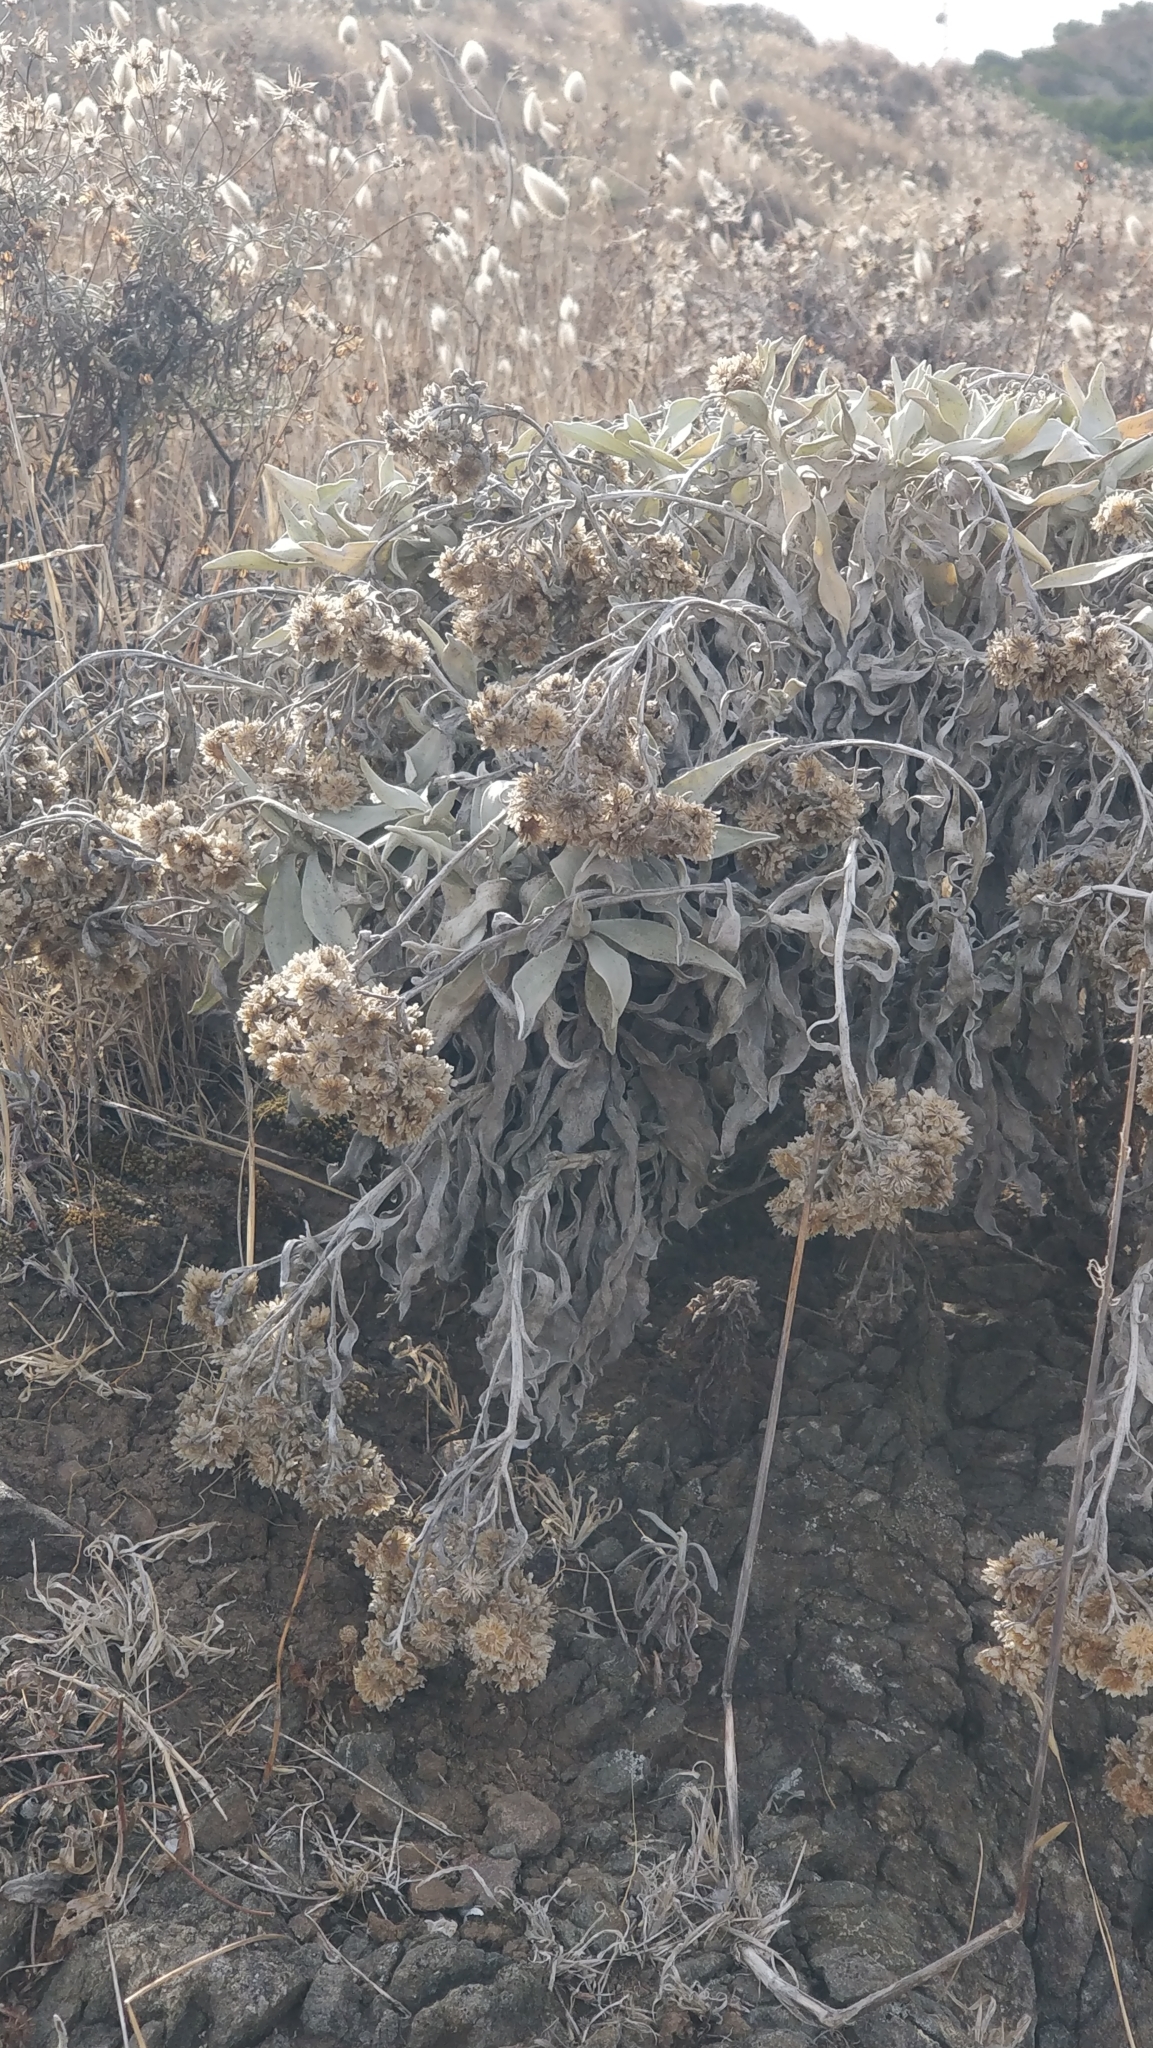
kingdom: Plantae
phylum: Tracheophyta
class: Magnoliopsida
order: Asterales
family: Asteraceae
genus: Helichrysum
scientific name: Helichrysum melaleucum
